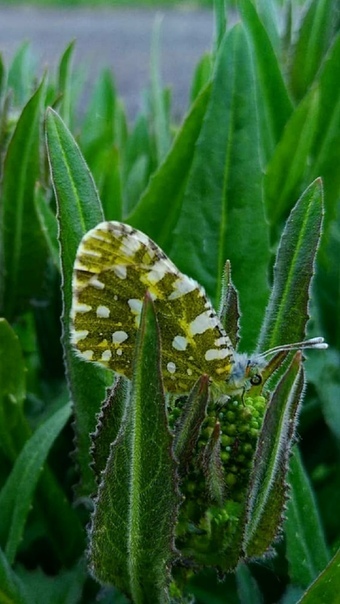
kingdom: Animalia
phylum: Arthropoda
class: Insecta
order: Lepidoptera
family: Pieridae
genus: Euchloe
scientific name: Euchloe ausonia
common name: Eastern dappled white
